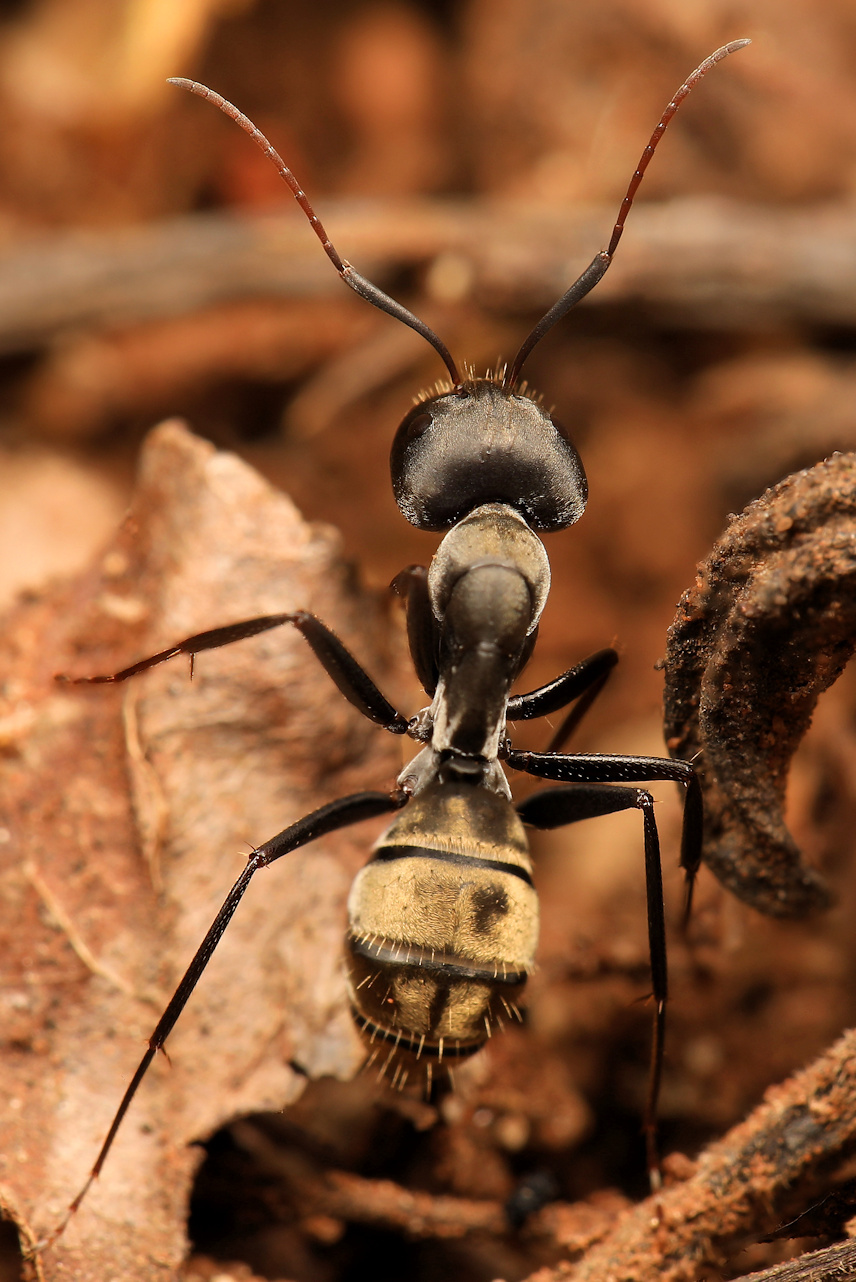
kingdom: Animalia
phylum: Arthropoda
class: Insecta
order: Hymenoptera
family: Formicidae
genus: Camponotus
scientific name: Camponotus cinctellus
